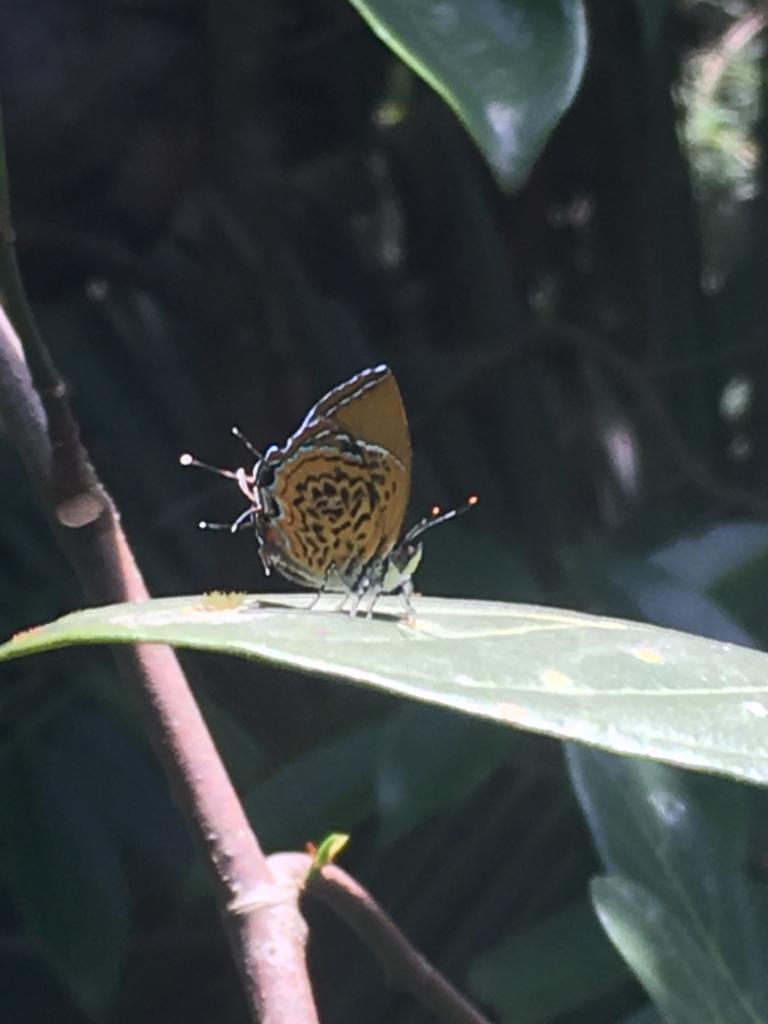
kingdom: Animalia
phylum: Arthropoda
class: Insecta
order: Lepidoptera
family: Lycaenidae
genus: Rathinda
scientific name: Rathinda amor
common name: Monkey puzzle
